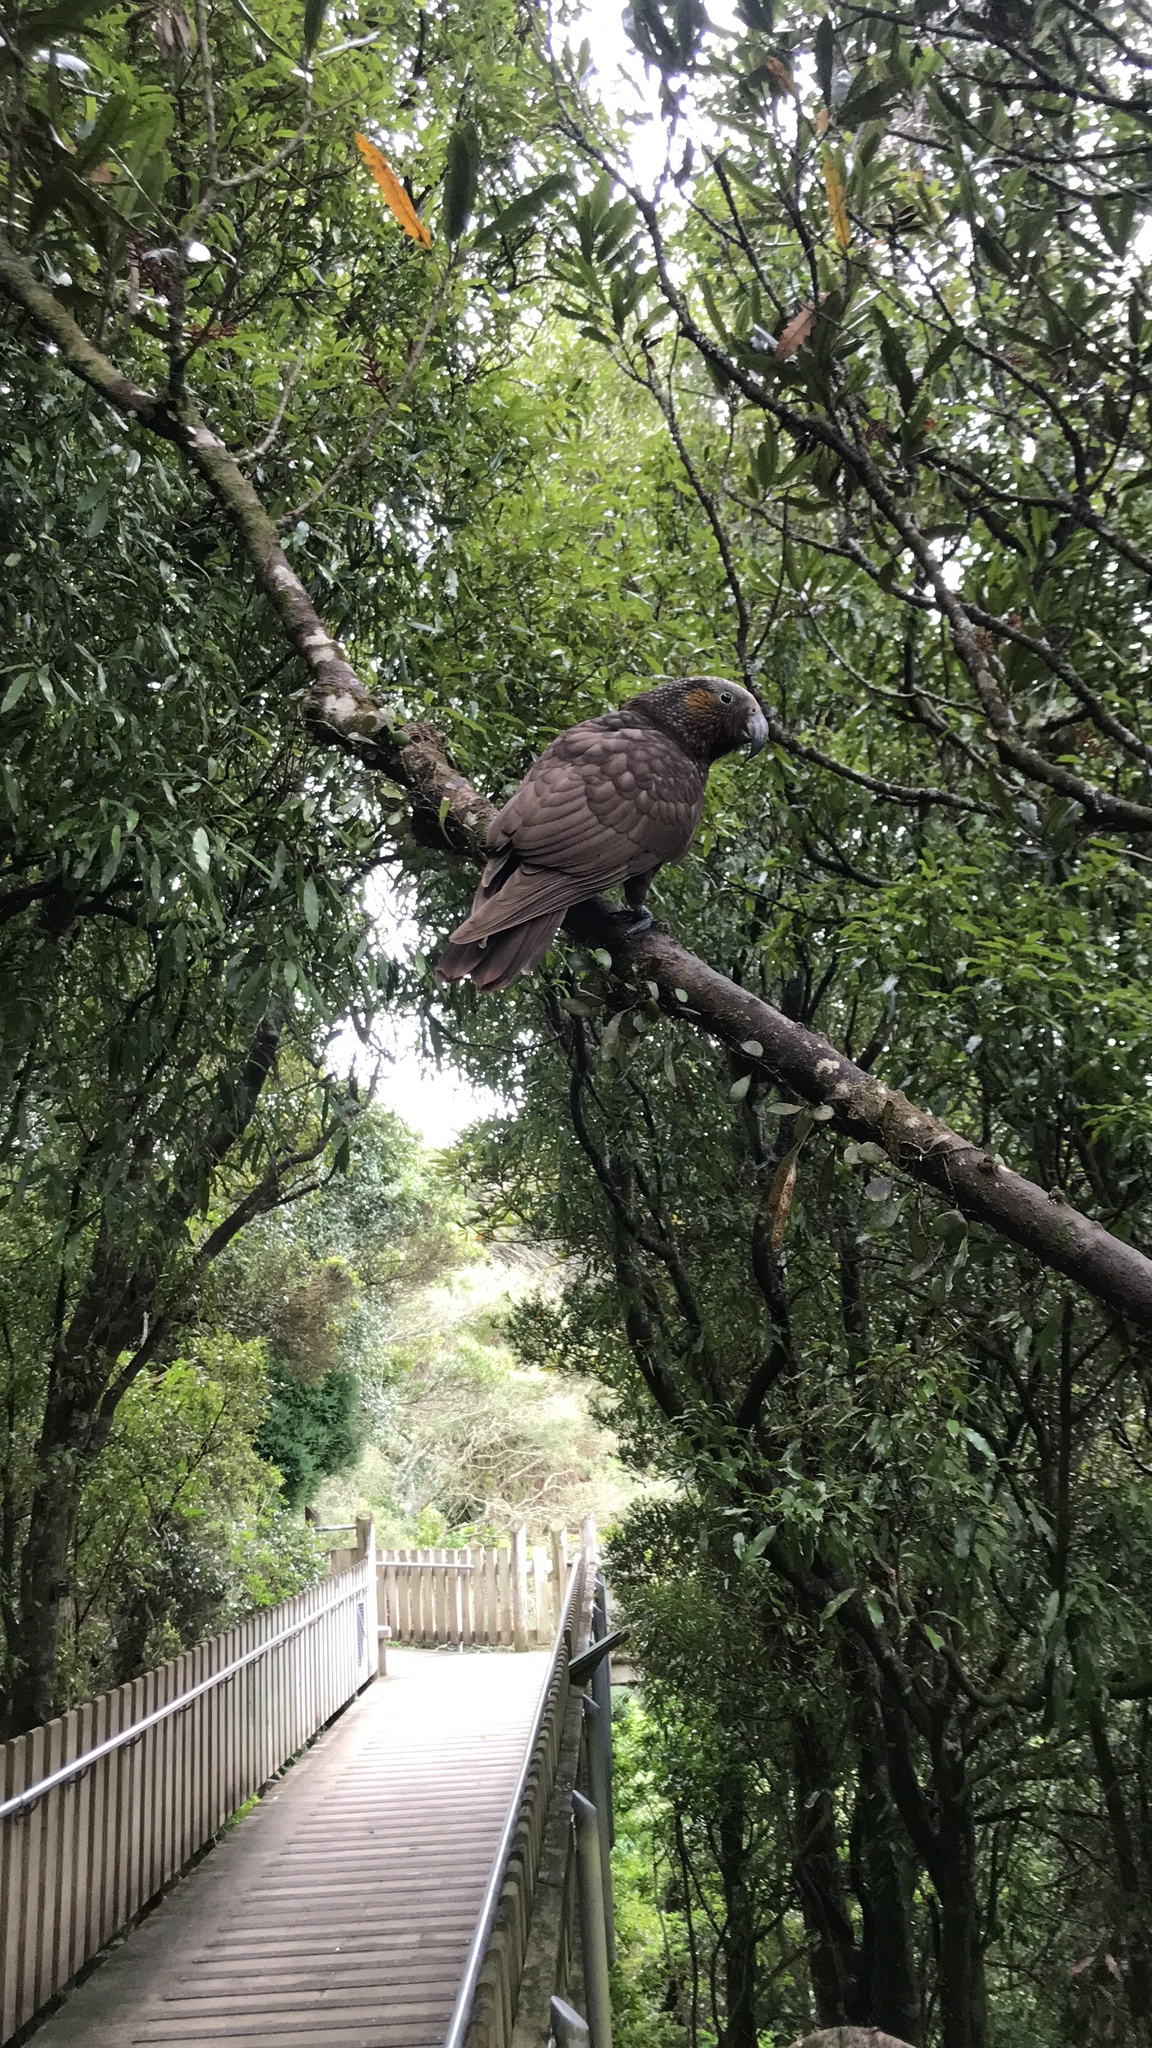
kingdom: Animalia
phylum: Chordata
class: Aves
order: Psittaciformes
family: Psittacidae
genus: Nestor
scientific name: Nestor meridionalis
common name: New zealand kaka
